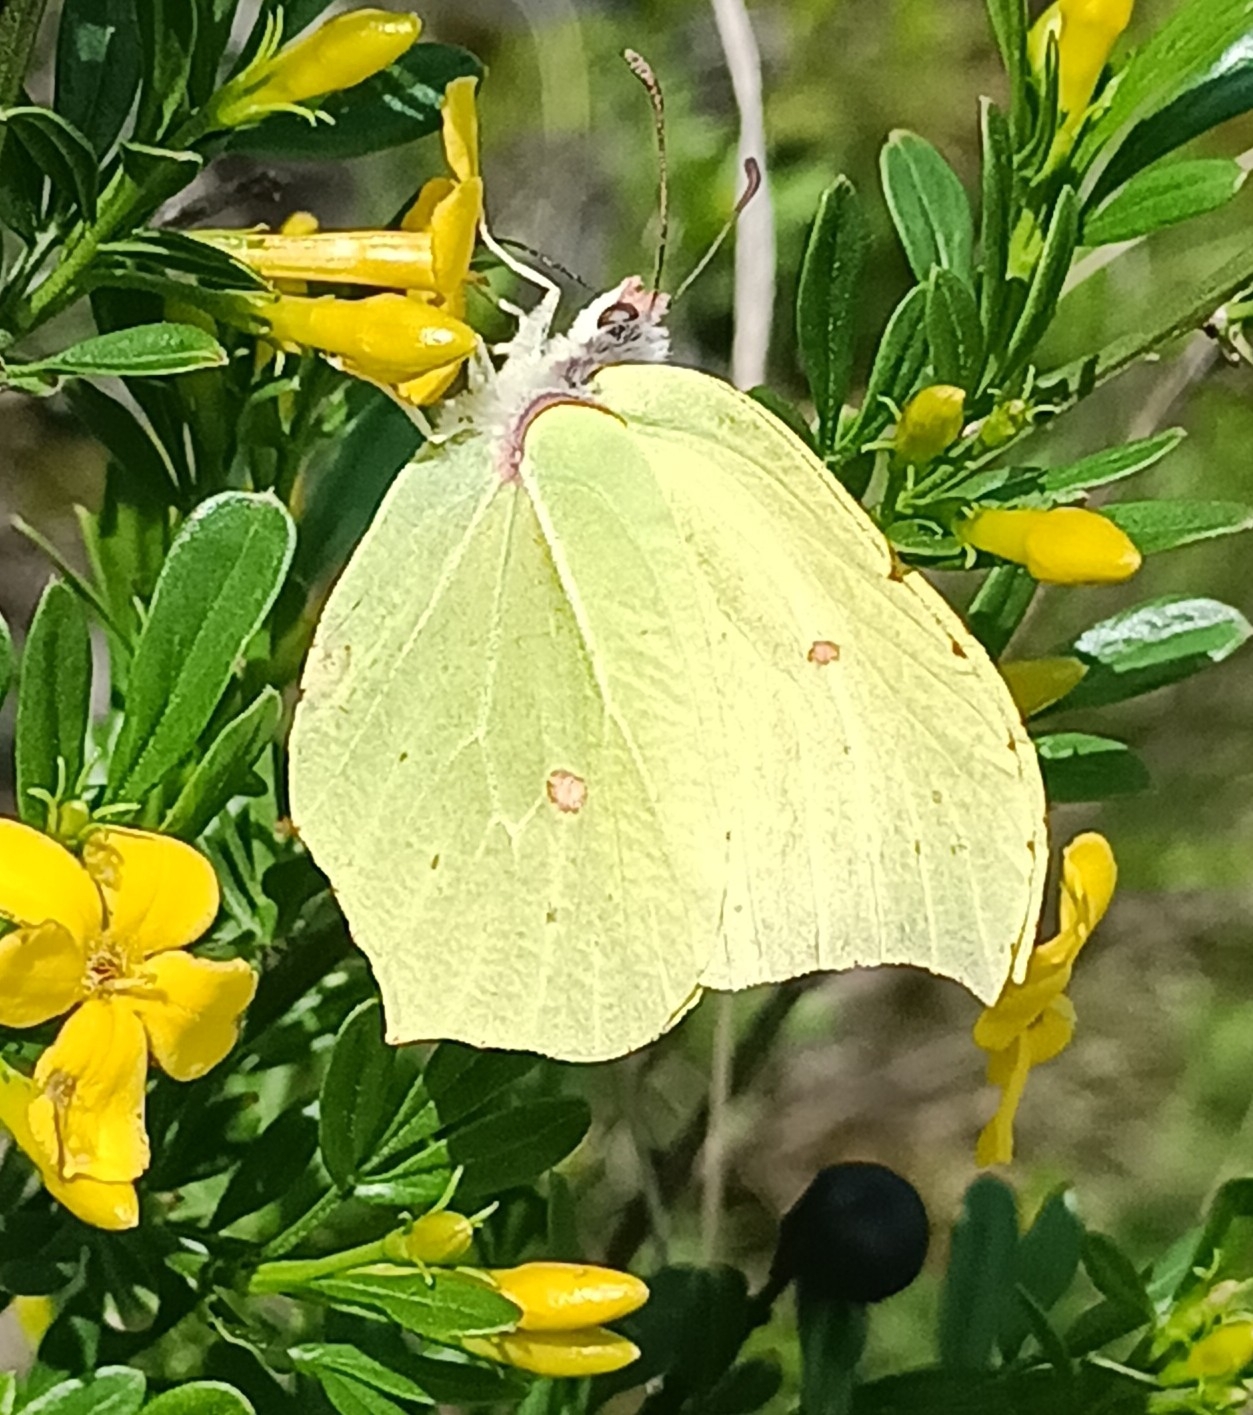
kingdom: Animalia
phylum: Arthropoda
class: Insecta
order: Lepidoptera
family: Pieridae
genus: Gonepteryx
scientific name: Gonepteryx rhamni
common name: Brimstone
